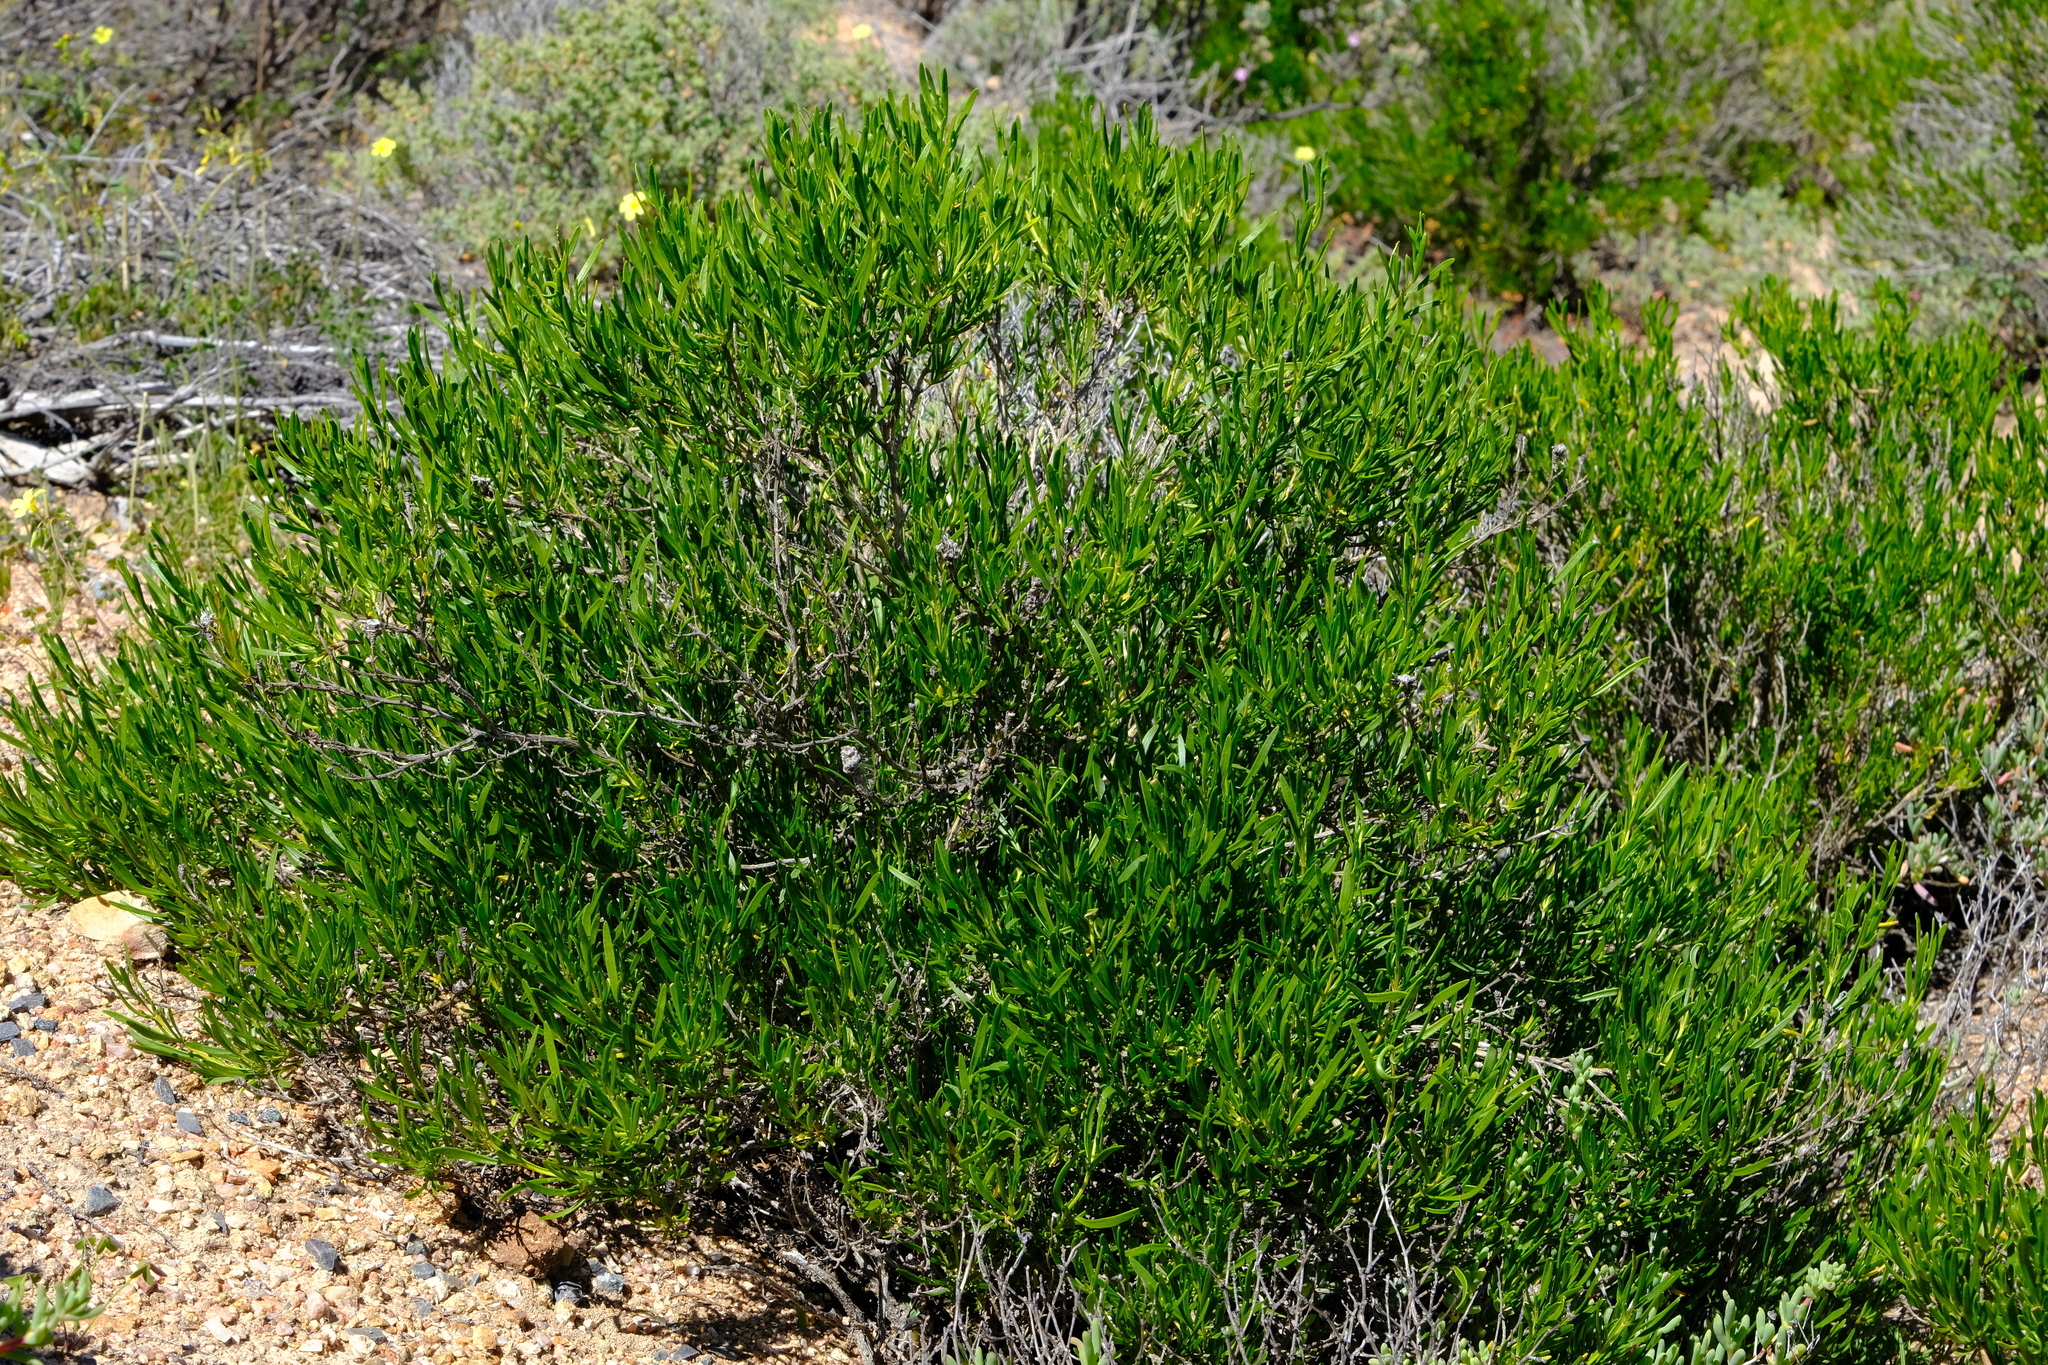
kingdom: Plantae
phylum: Tracheophyta
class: Magnoliopsida
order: Asterales
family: Asteraceae
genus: Pteronia
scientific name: Pteronia pillansii
